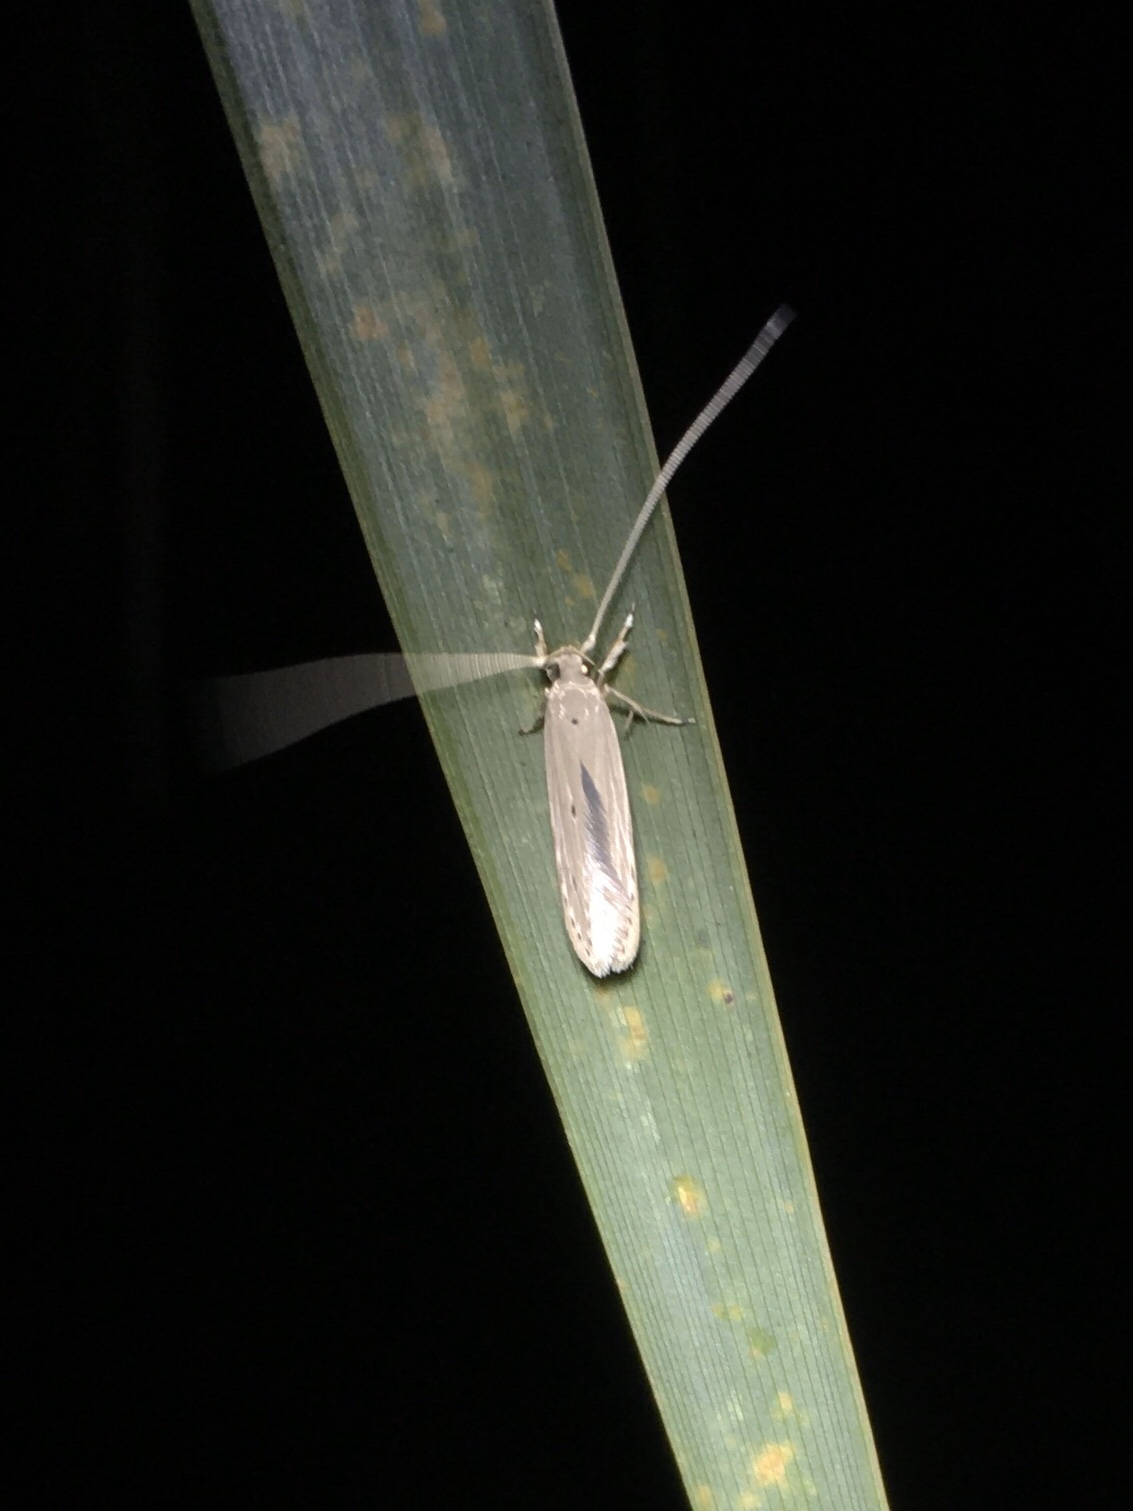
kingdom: Animalia
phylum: Arthropoda
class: Insecta
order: Lepidoptera
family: Coleophoridae
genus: Homaledra
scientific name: Homaledra sabalella
